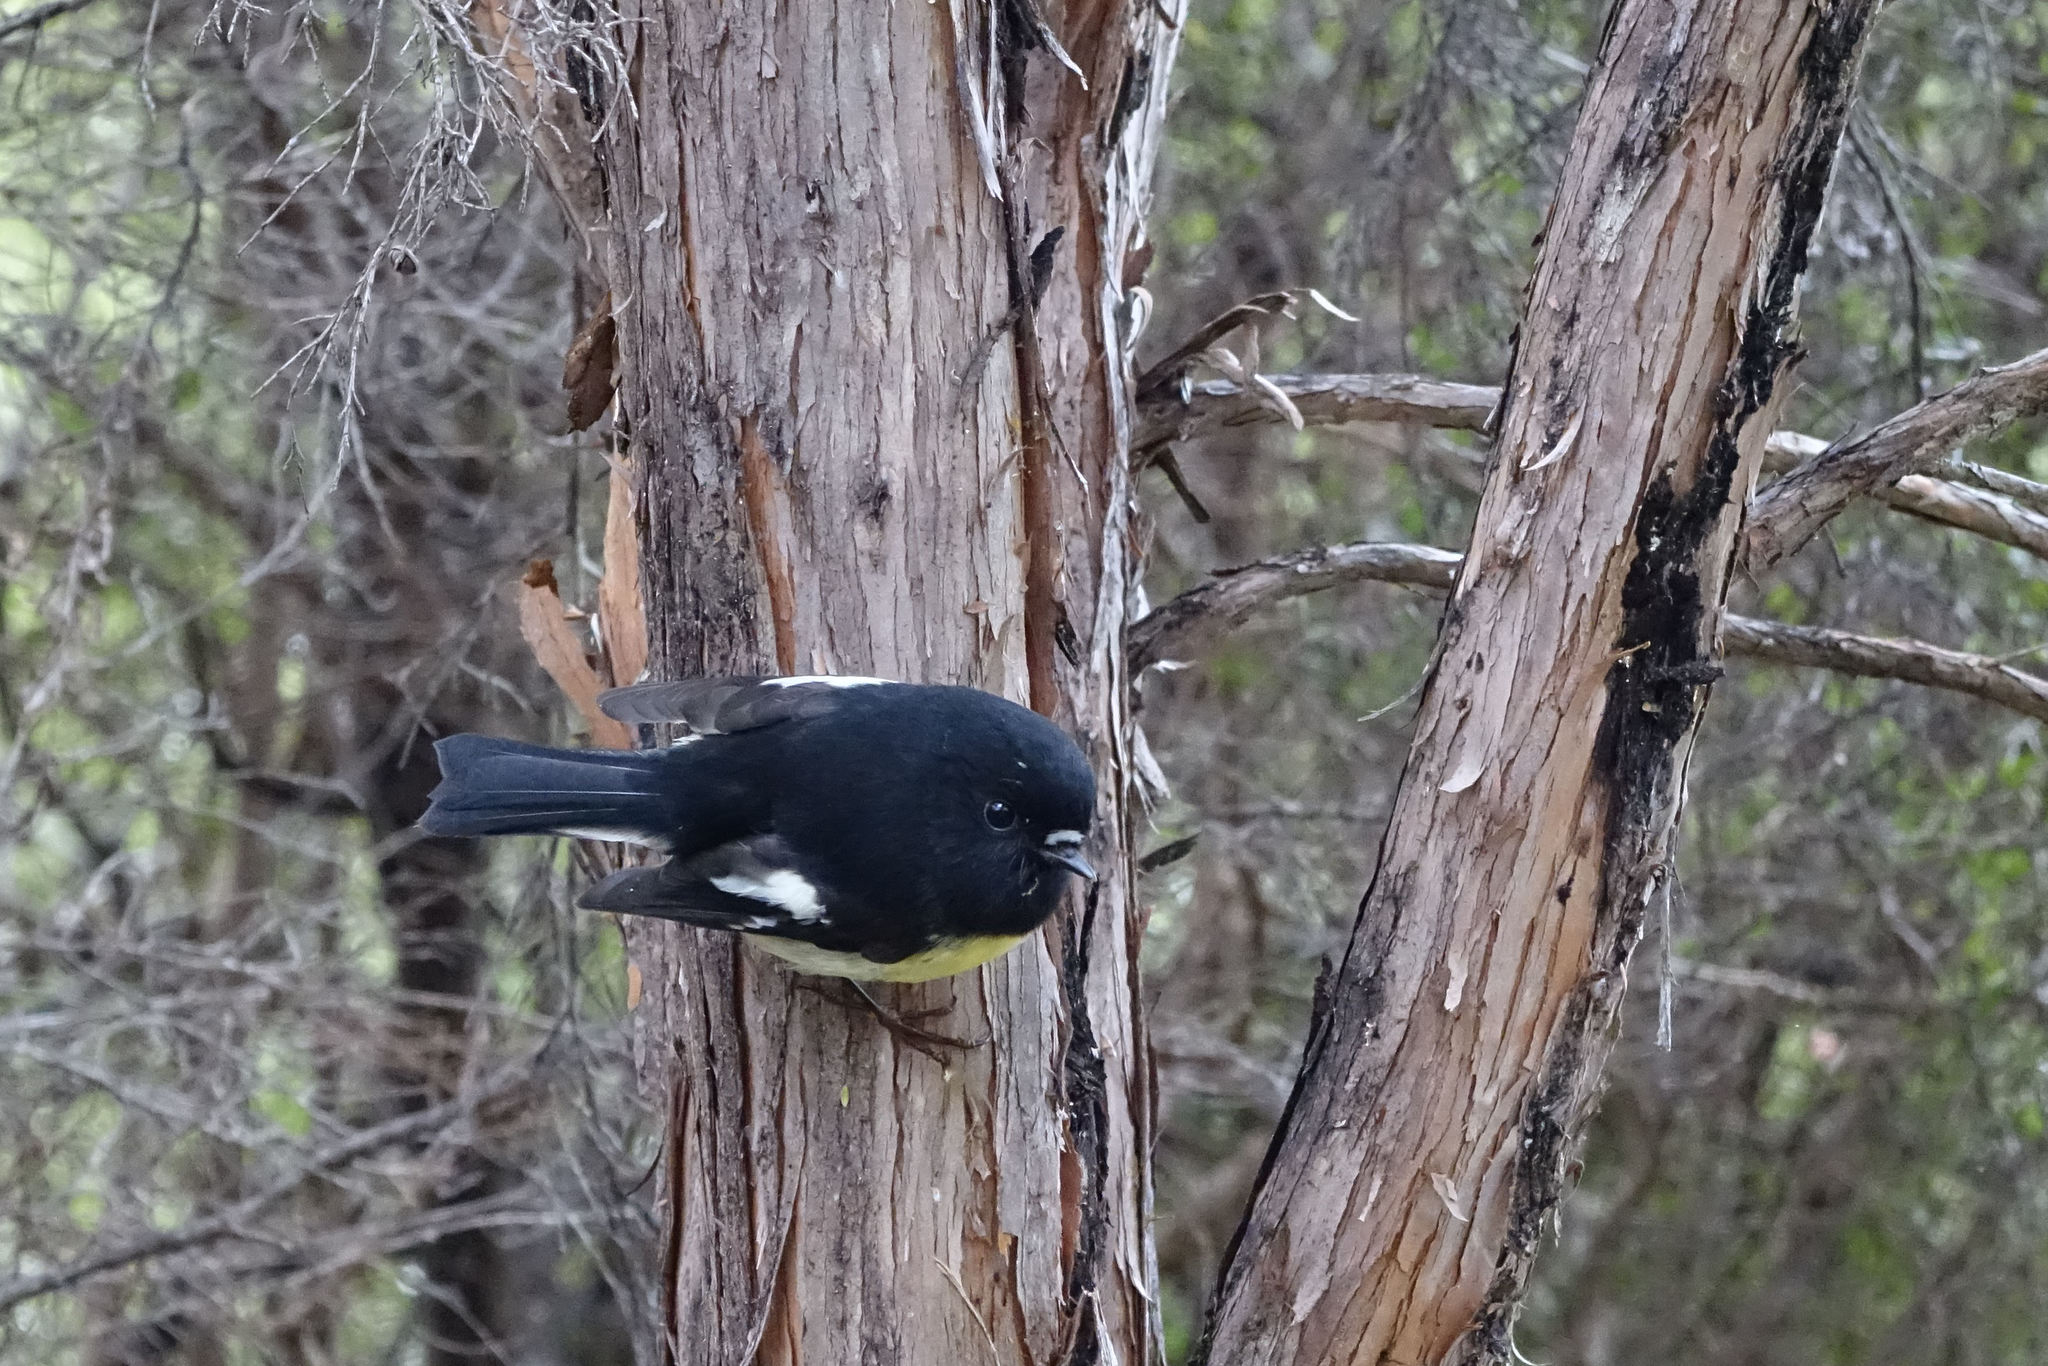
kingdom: Animalia
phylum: Chordata
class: Aves
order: Passeriformes
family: Petroicidae
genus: Petroica
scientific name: Petroica macrocephala
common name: Tomtit
